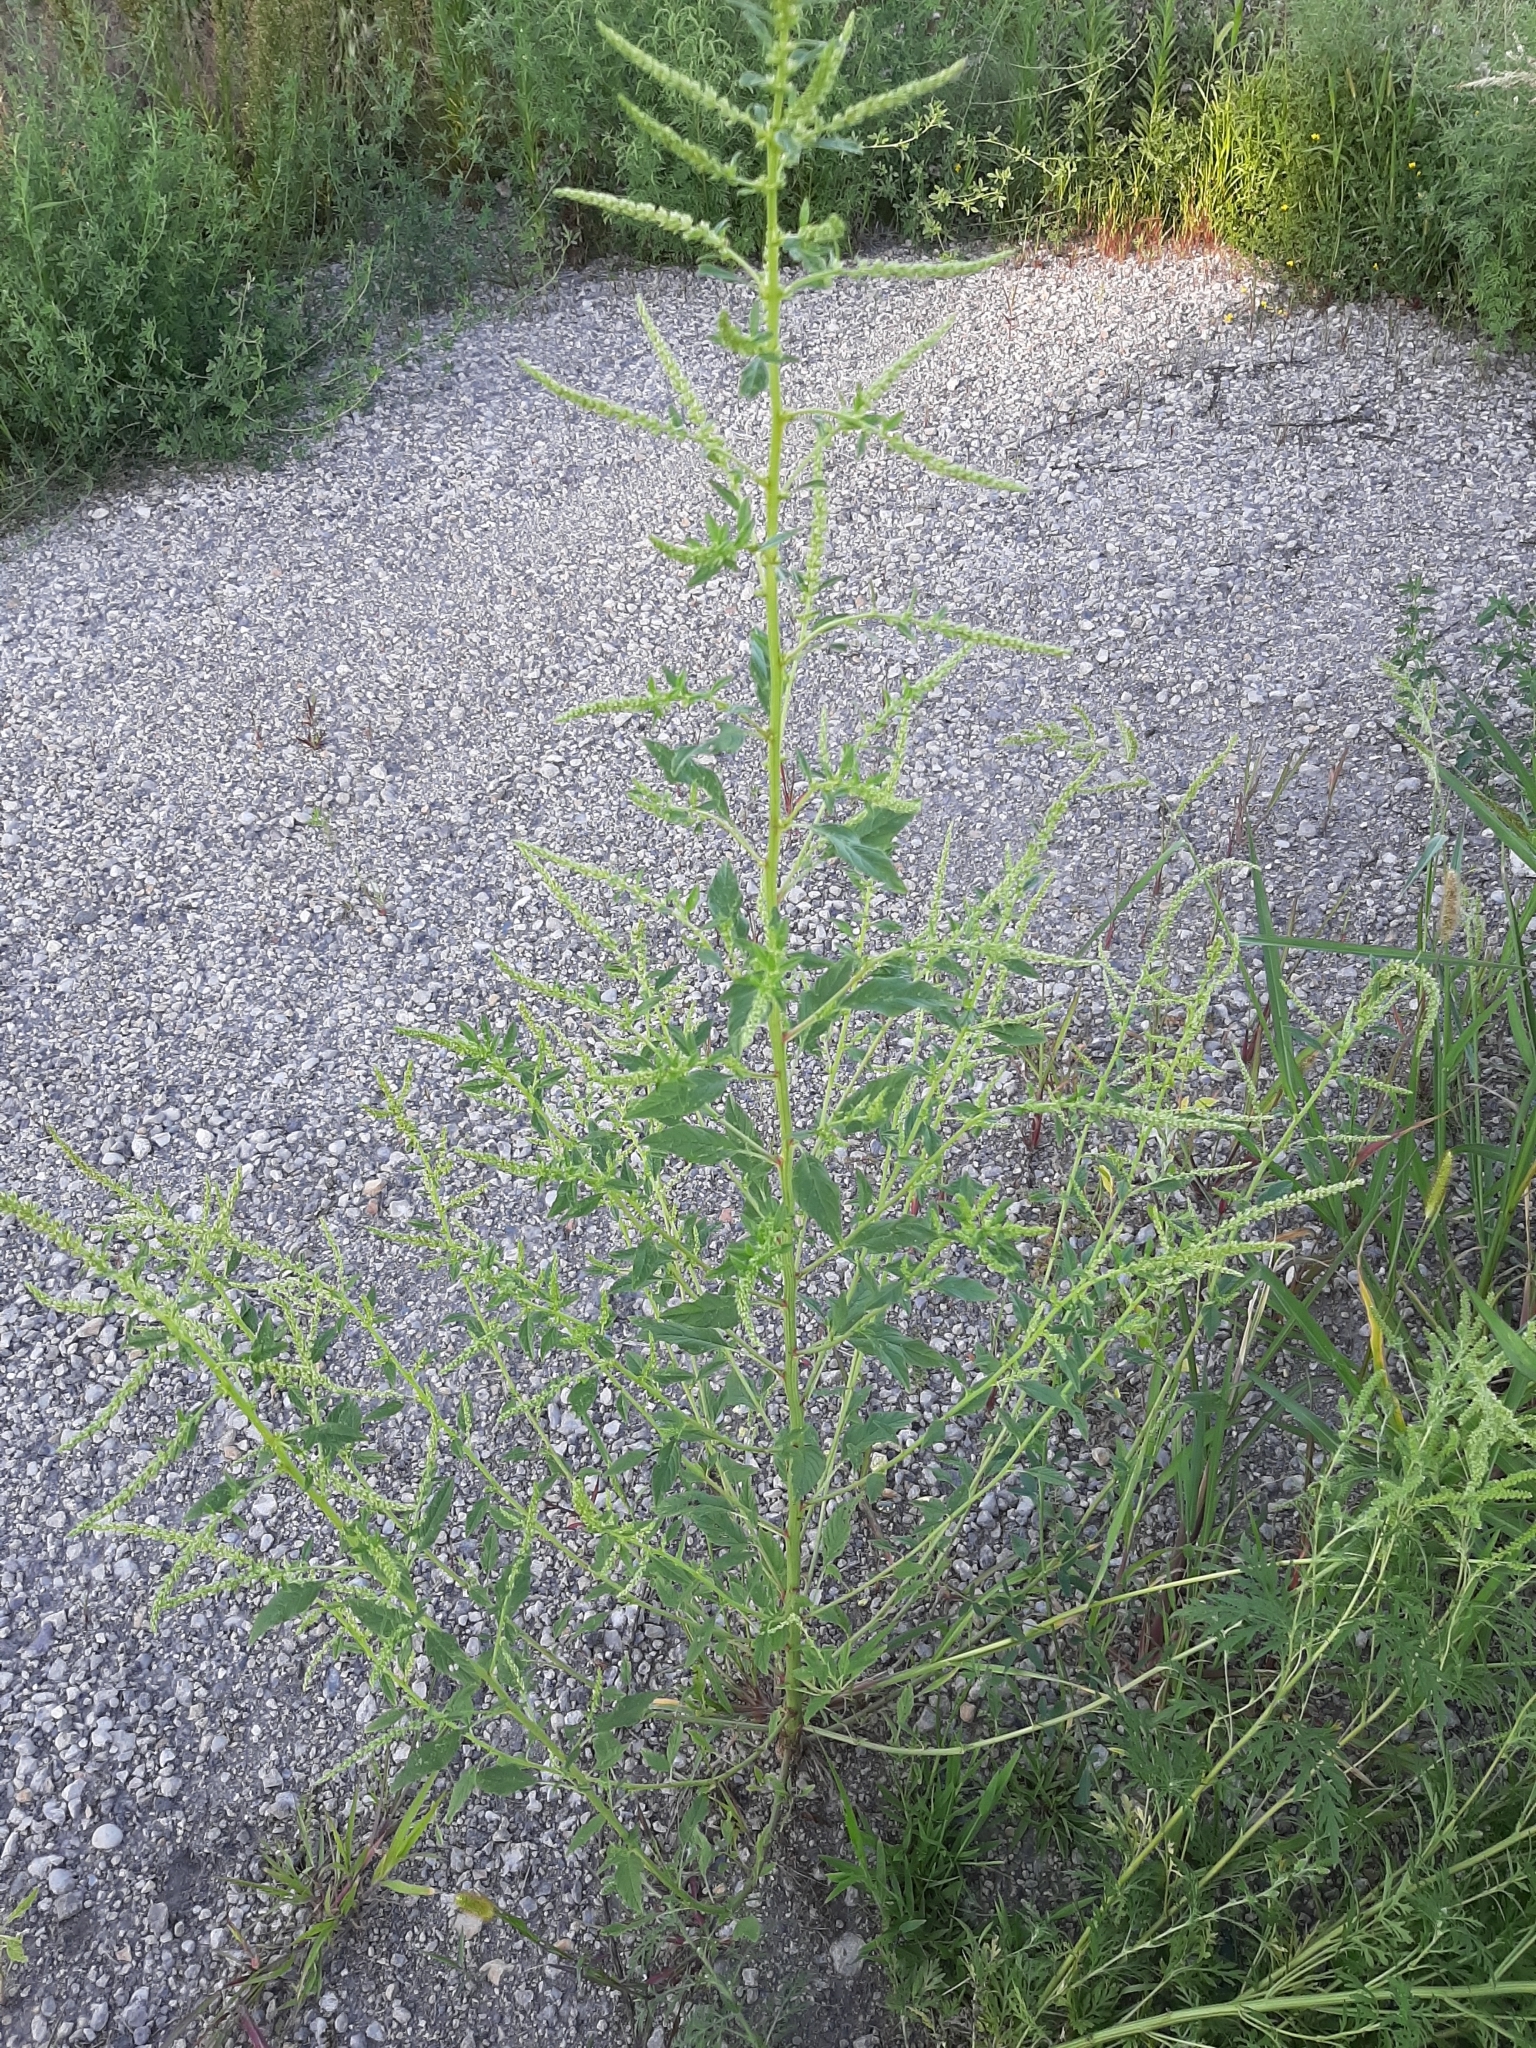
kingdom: Plantae
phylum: Tracheophyta
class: Magnoliopsida
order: Caryophyllales
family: Amaranthaceae
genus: Amaranthus
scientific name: Amaranthus tuberculatus
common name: Rough-fruit amaranth
